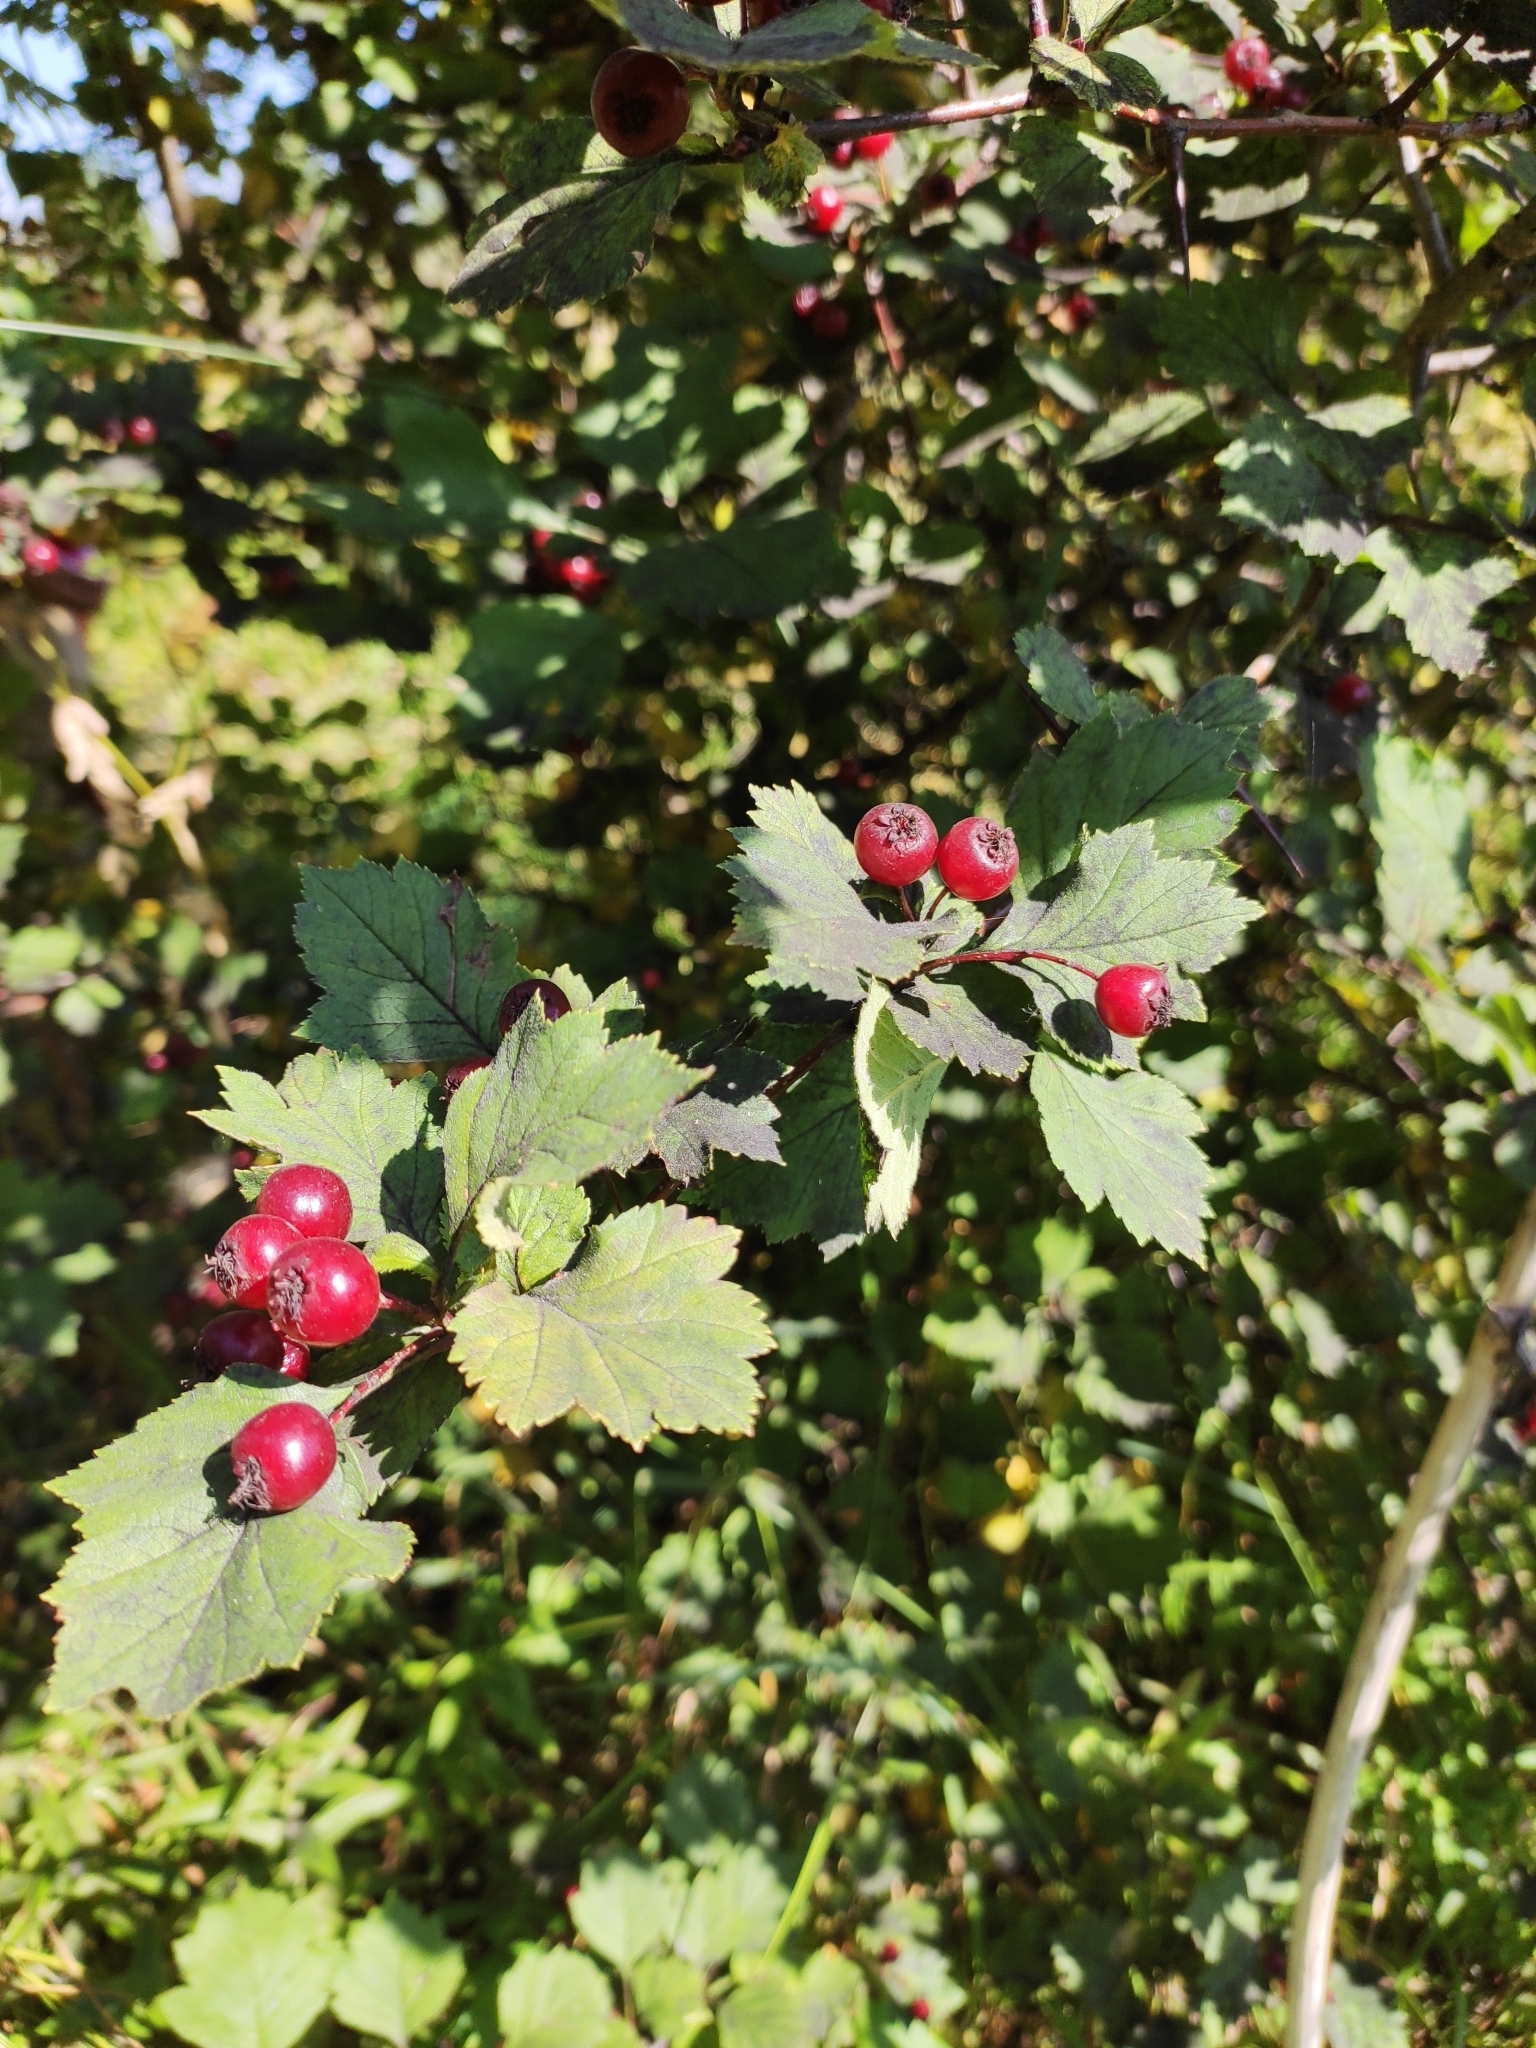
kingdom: Plantae
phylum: Tracheophyta
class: Magnoliopsida
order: Rosales
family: Rosaceae
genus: Crataegus
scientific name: Crataegus sanguinea
